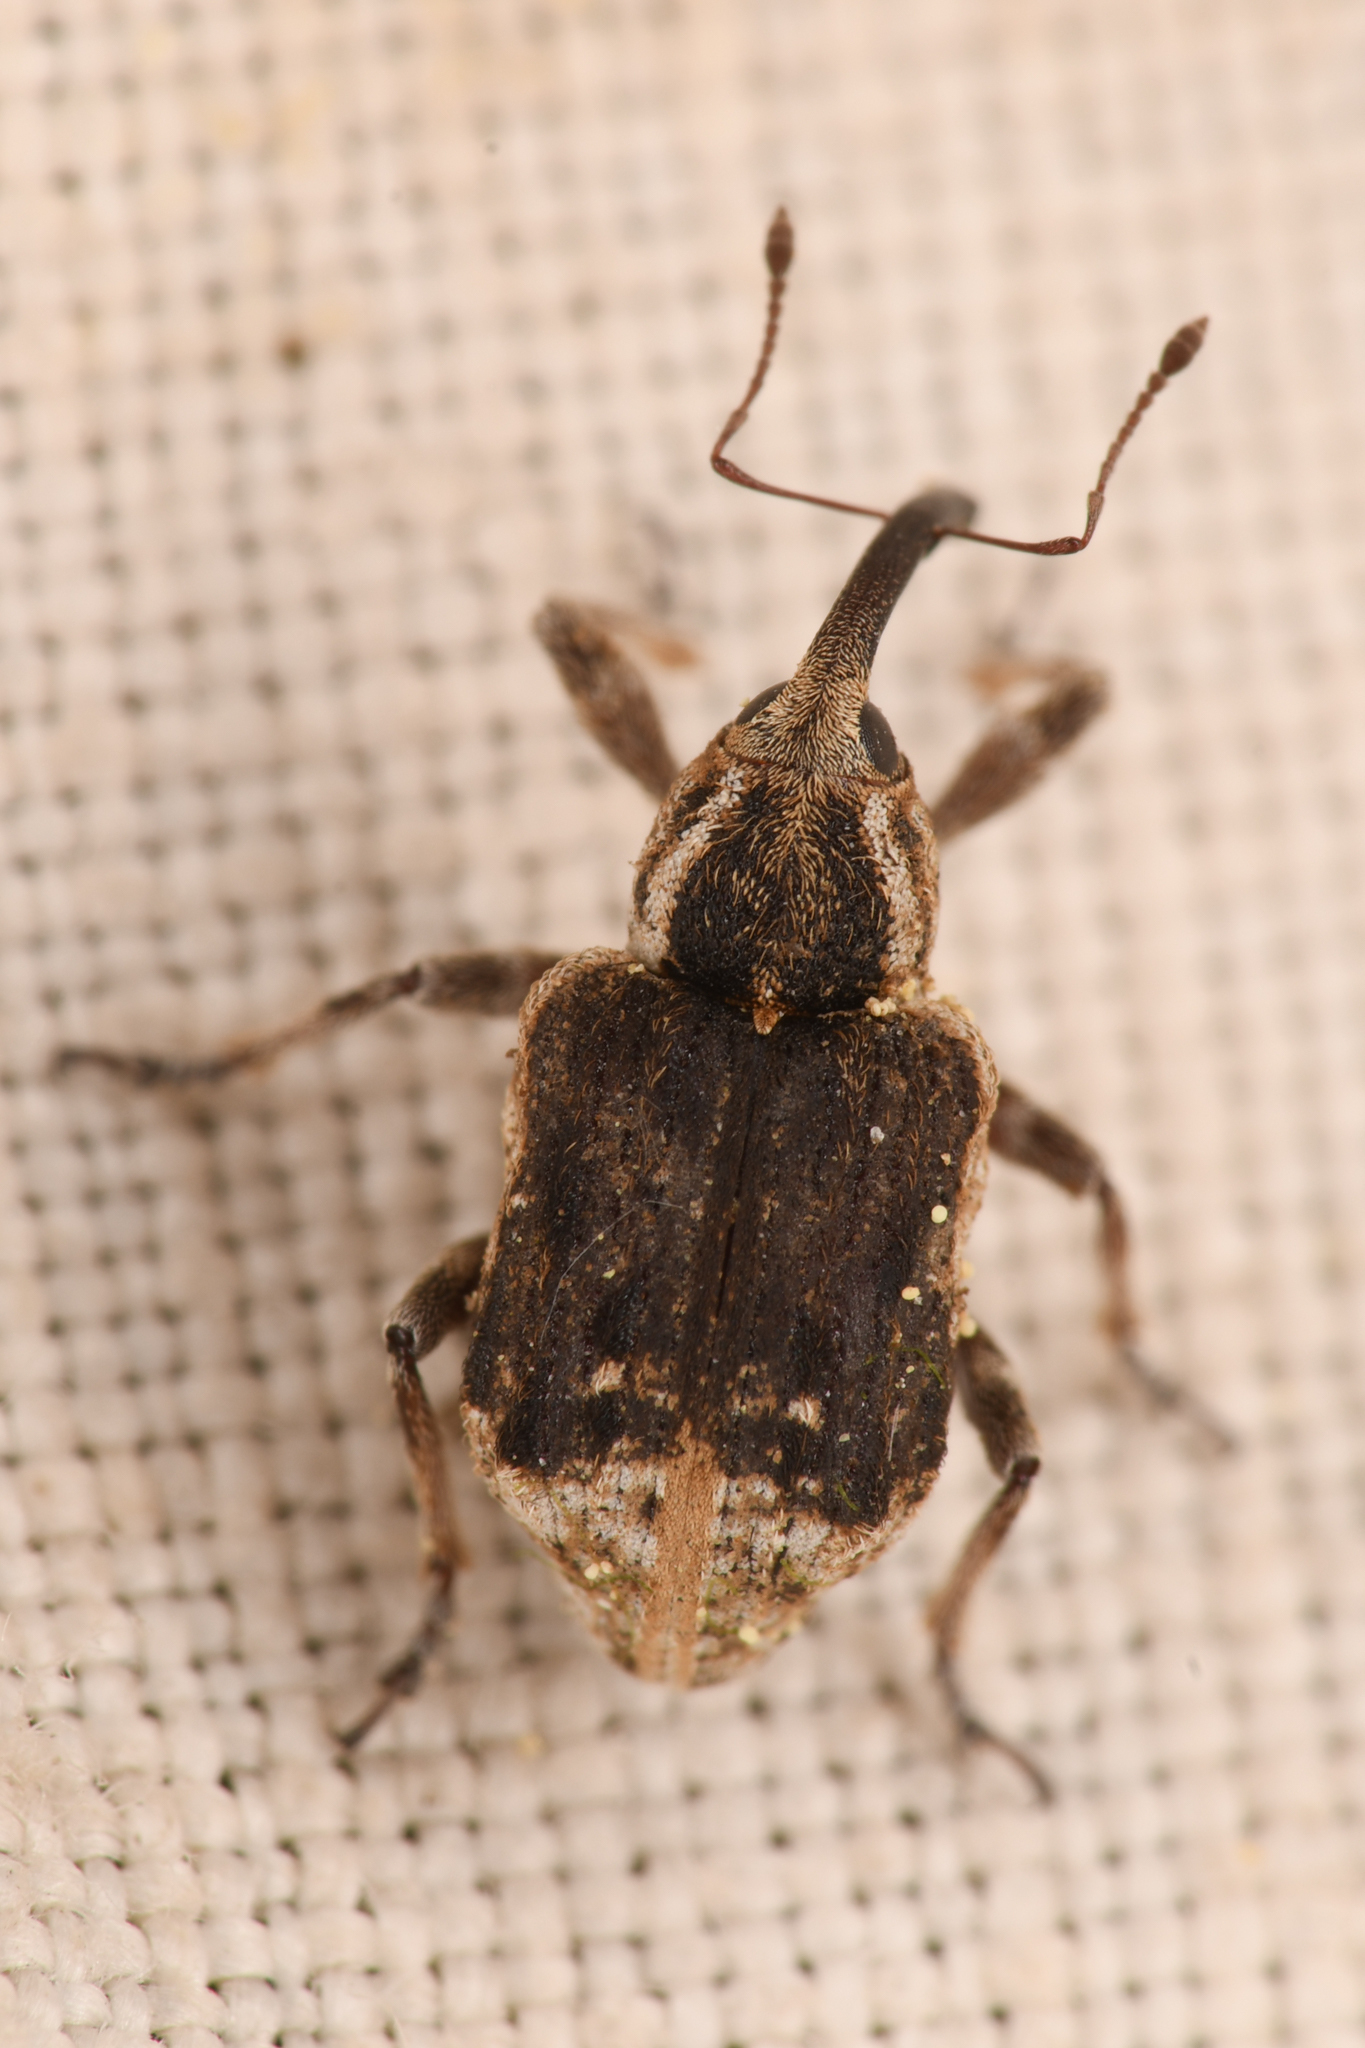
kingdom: Animalia
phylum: Arthropoda
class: Insecta
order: Coleoptera
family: Brachyceridae
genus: Grypus
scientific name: Grypus equiseti
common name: Horsetail weevil
